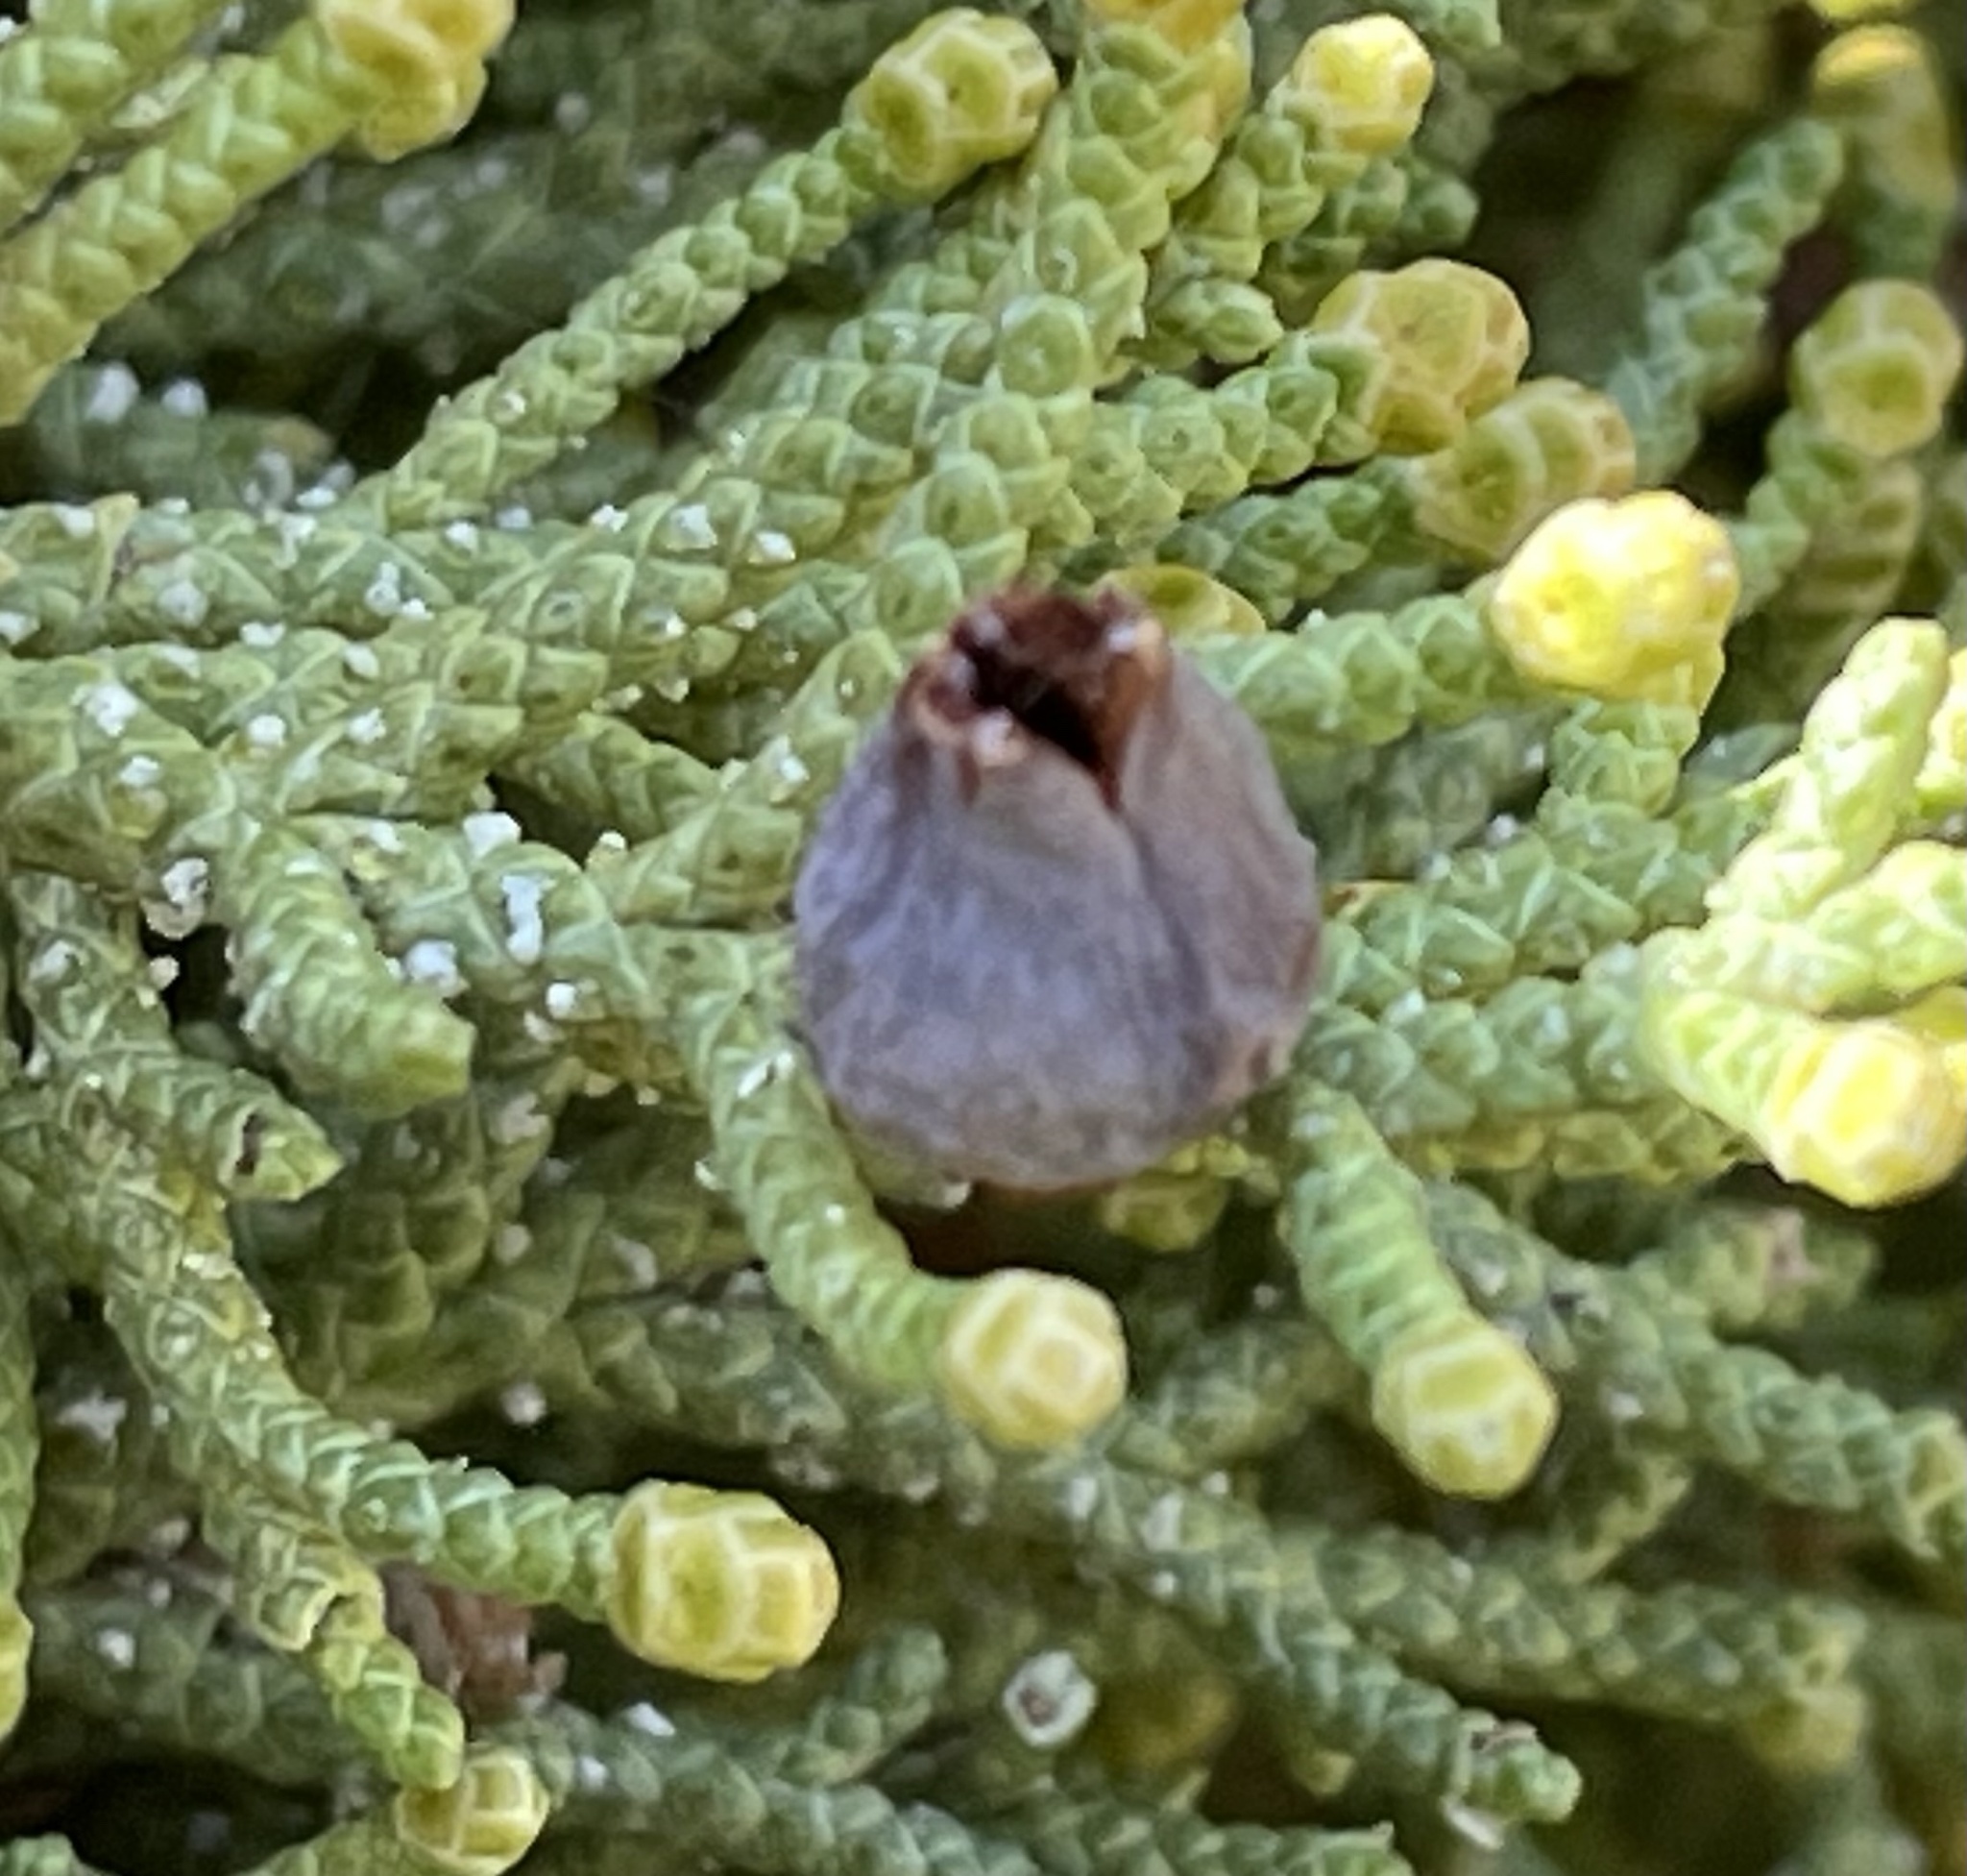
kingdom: Animalia
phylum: Arthropoda
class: Insecta
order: Diptera
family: Cecidomyiidae
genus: Walshomyia
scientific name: Walshomyia juniperina
